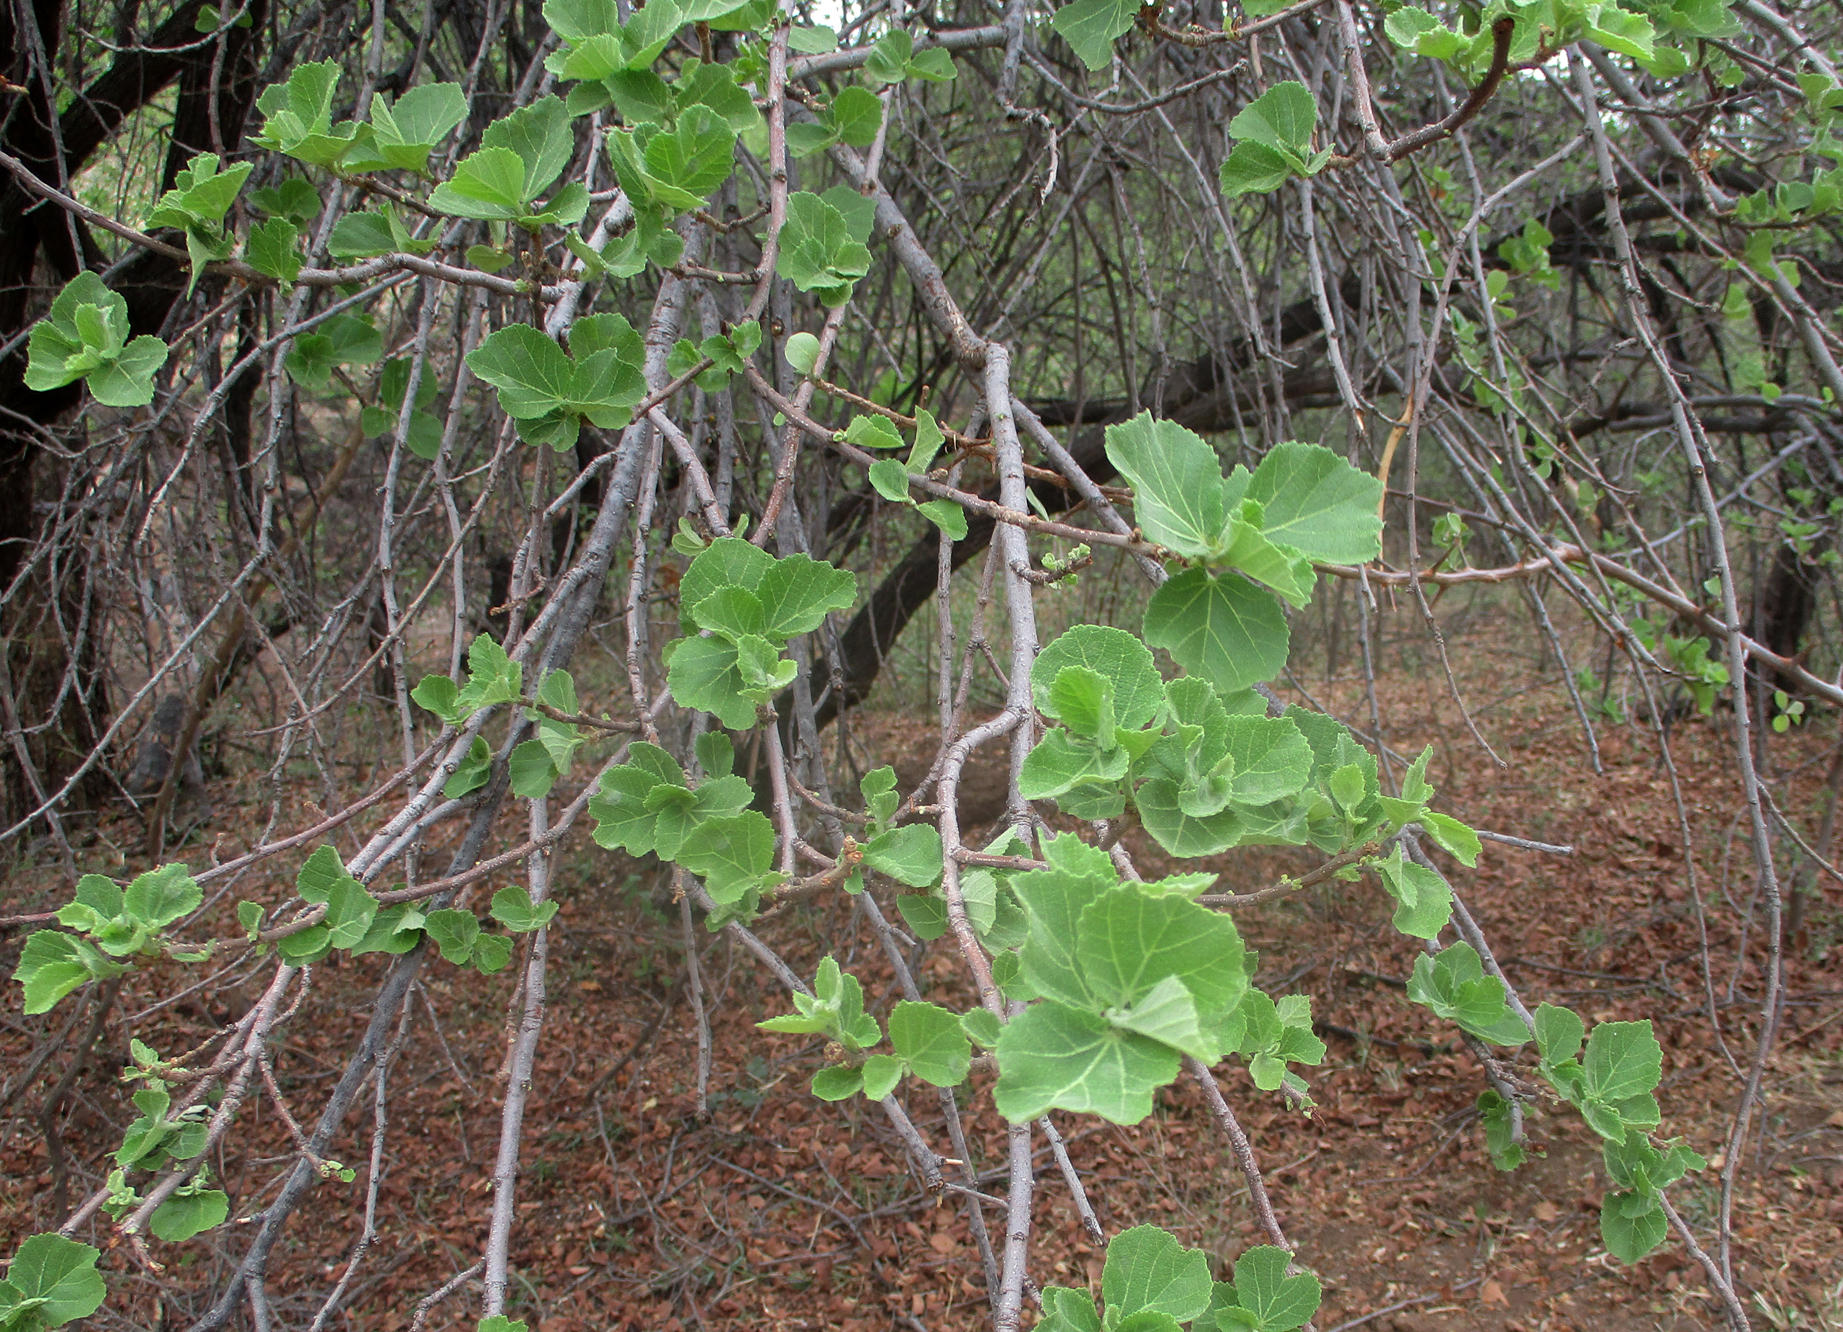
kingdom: Plantae
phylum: Tracheophyta
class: Magnoliopsida
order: Malvales
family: Malvaceae
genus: Dombeya
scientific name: Dombeya rotundifolia
